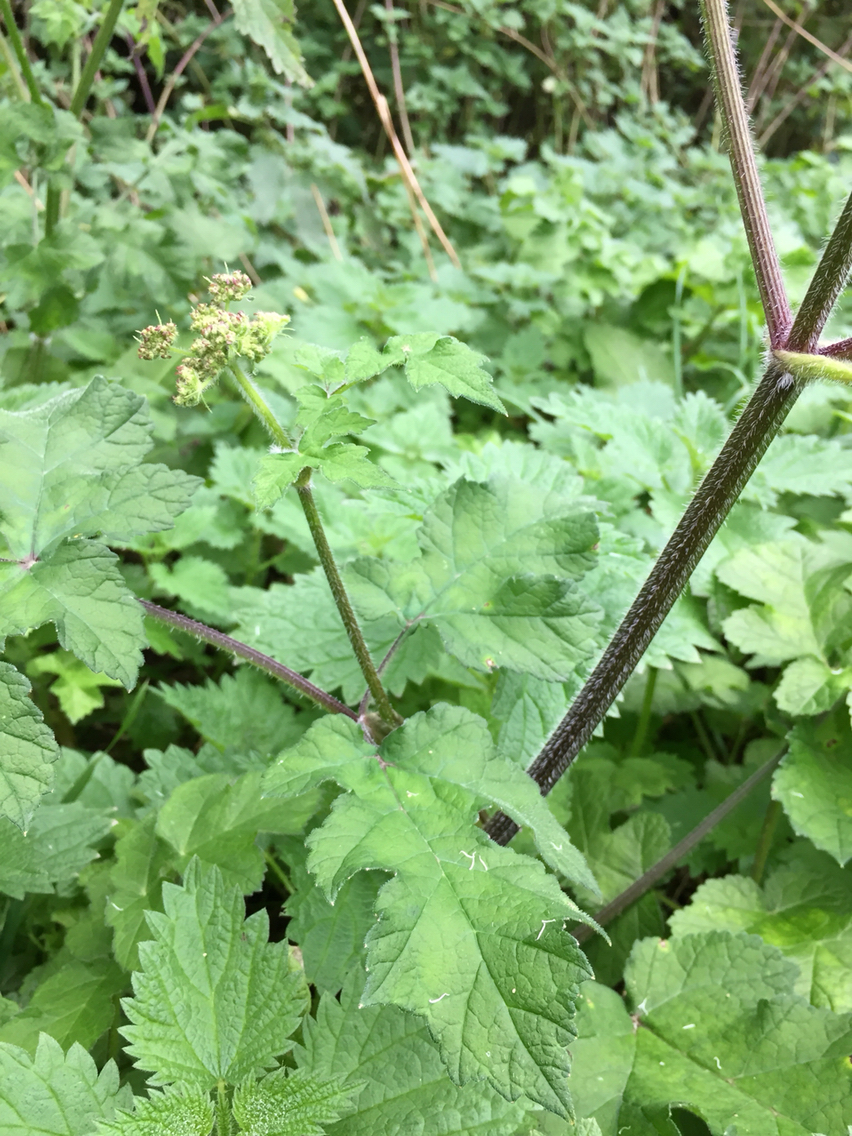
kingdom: Plantae
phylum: Tracheophyta
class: Magnoliopsida
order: Apiales
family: Apiaceae
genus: Heracleum
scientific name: Heracleum sphondylium
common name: Hogweed
